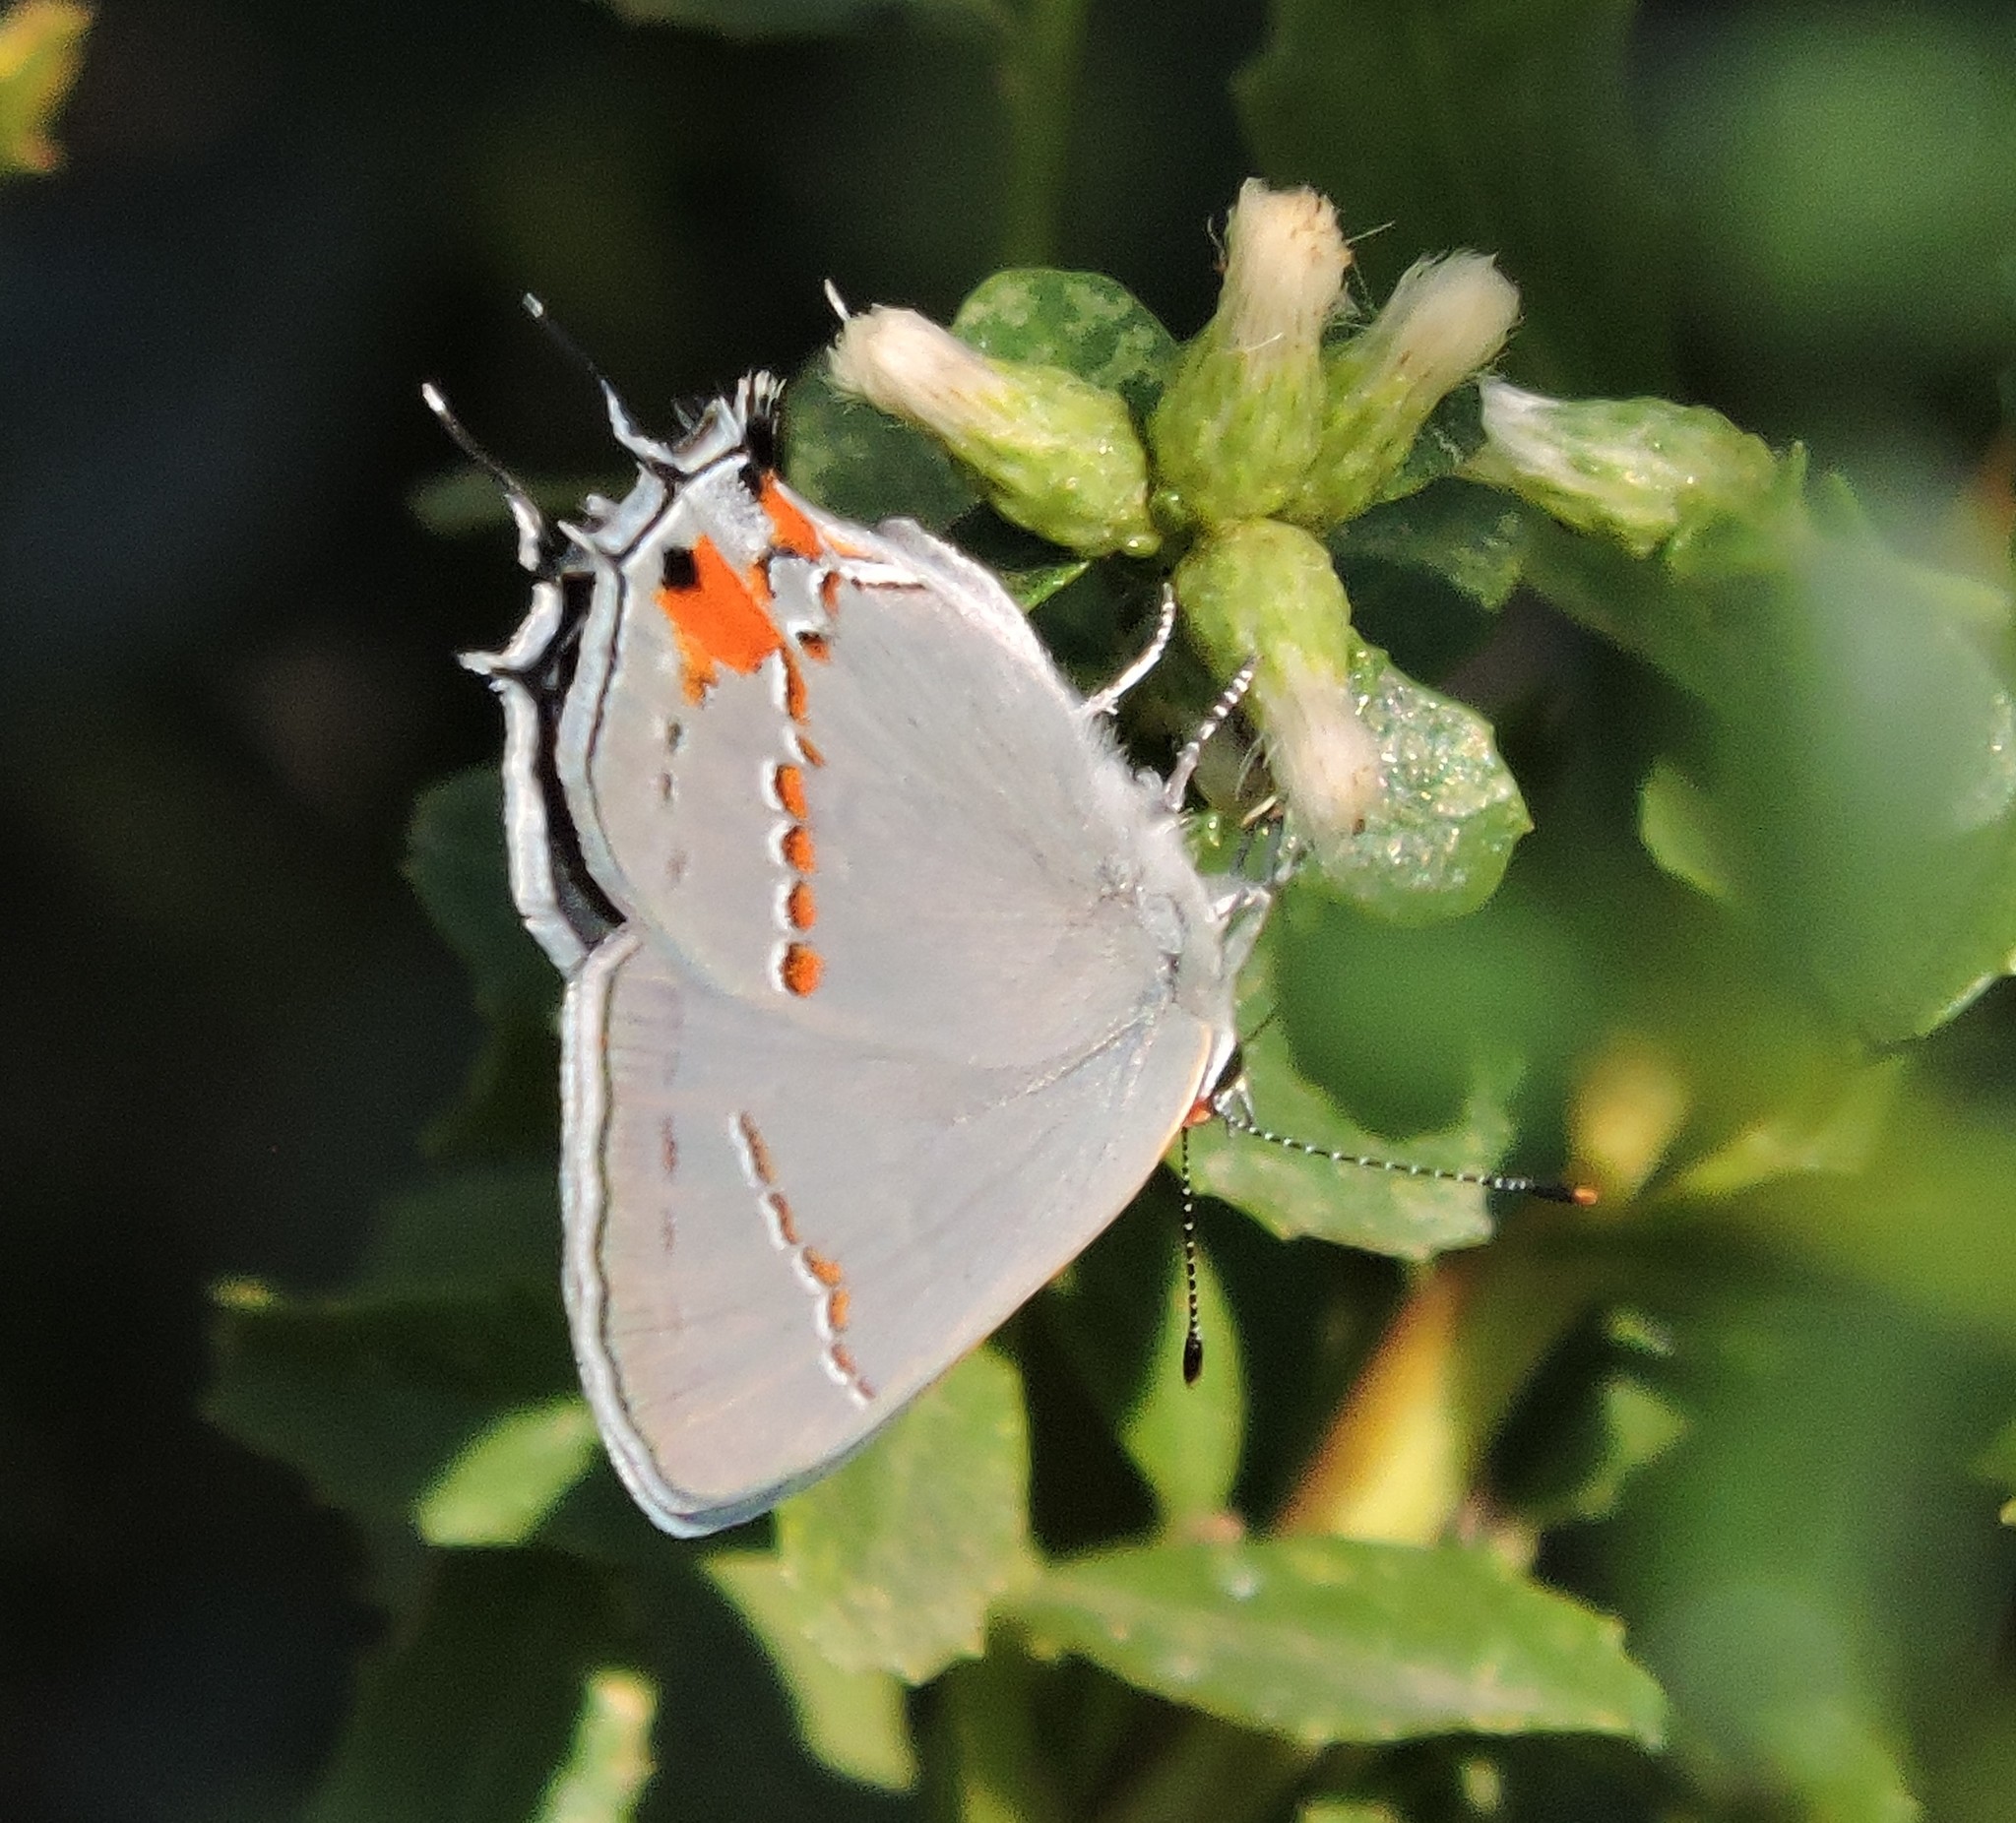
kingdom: Animalia
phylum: Arthropoda
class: Insecta
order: Lepidoptera
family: Lycaenidae
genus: Strymon
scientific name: Strymon melinus
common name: Gray hairstreak
